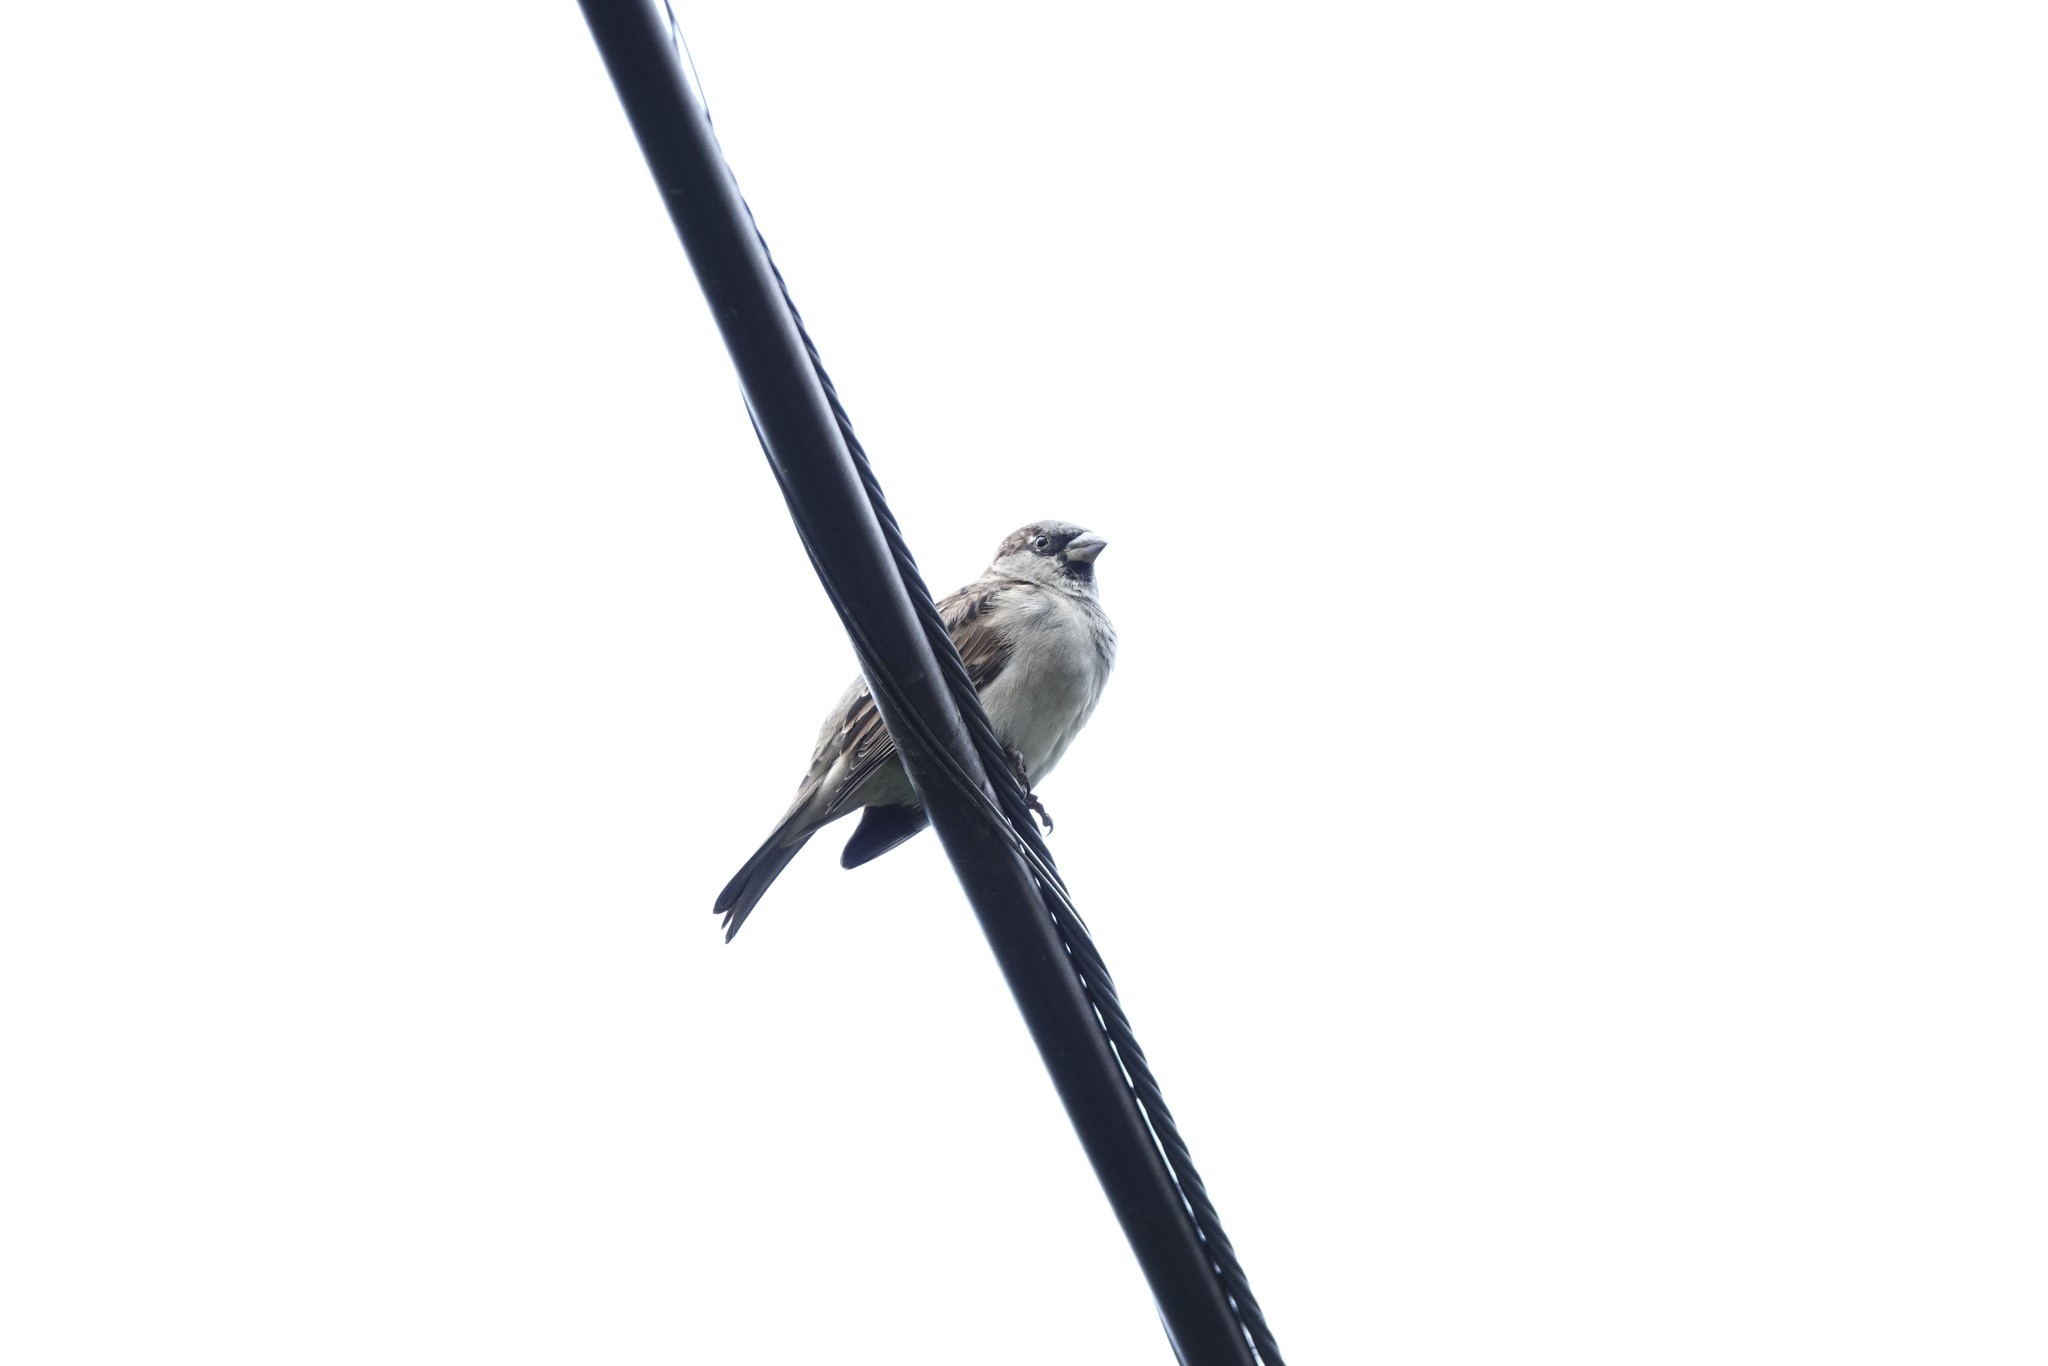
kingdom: Animalia
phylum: Chordata
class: Aves
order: Passeriformes
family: Passeridae
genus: Passer
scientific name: Passer domesticus
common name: House sparrow
